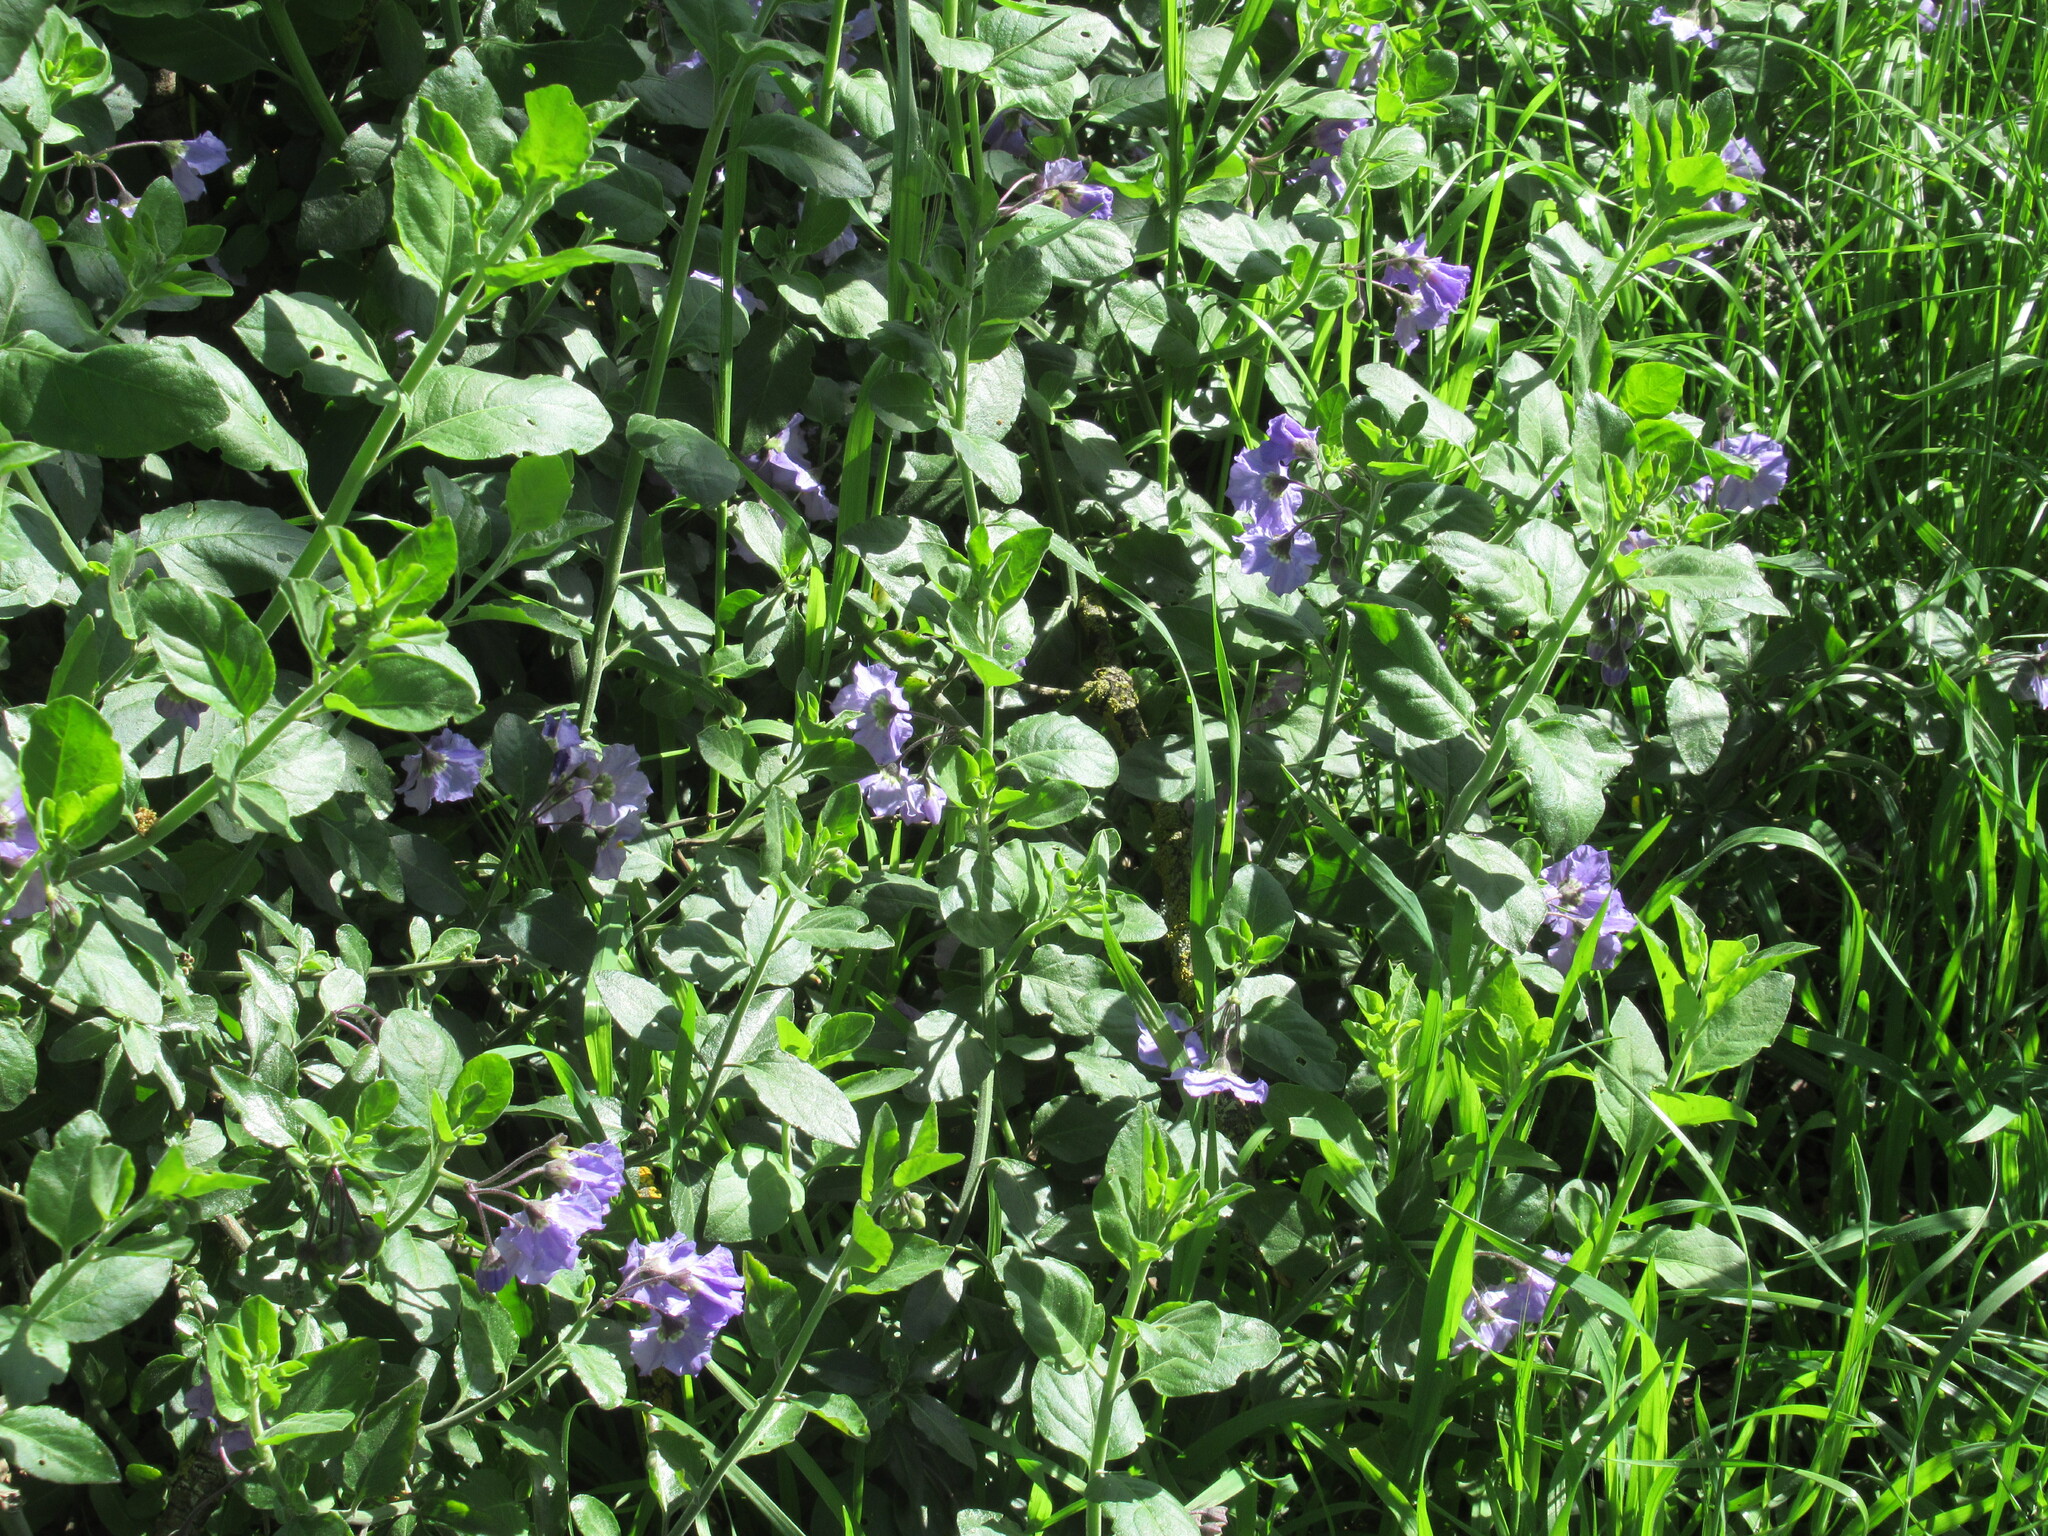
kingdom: Plantae
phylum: Tracheophyta
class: Magnoliopsida
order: Solanales
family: Solanaceae
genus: Solanum
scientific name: Solanum umbelliferum
